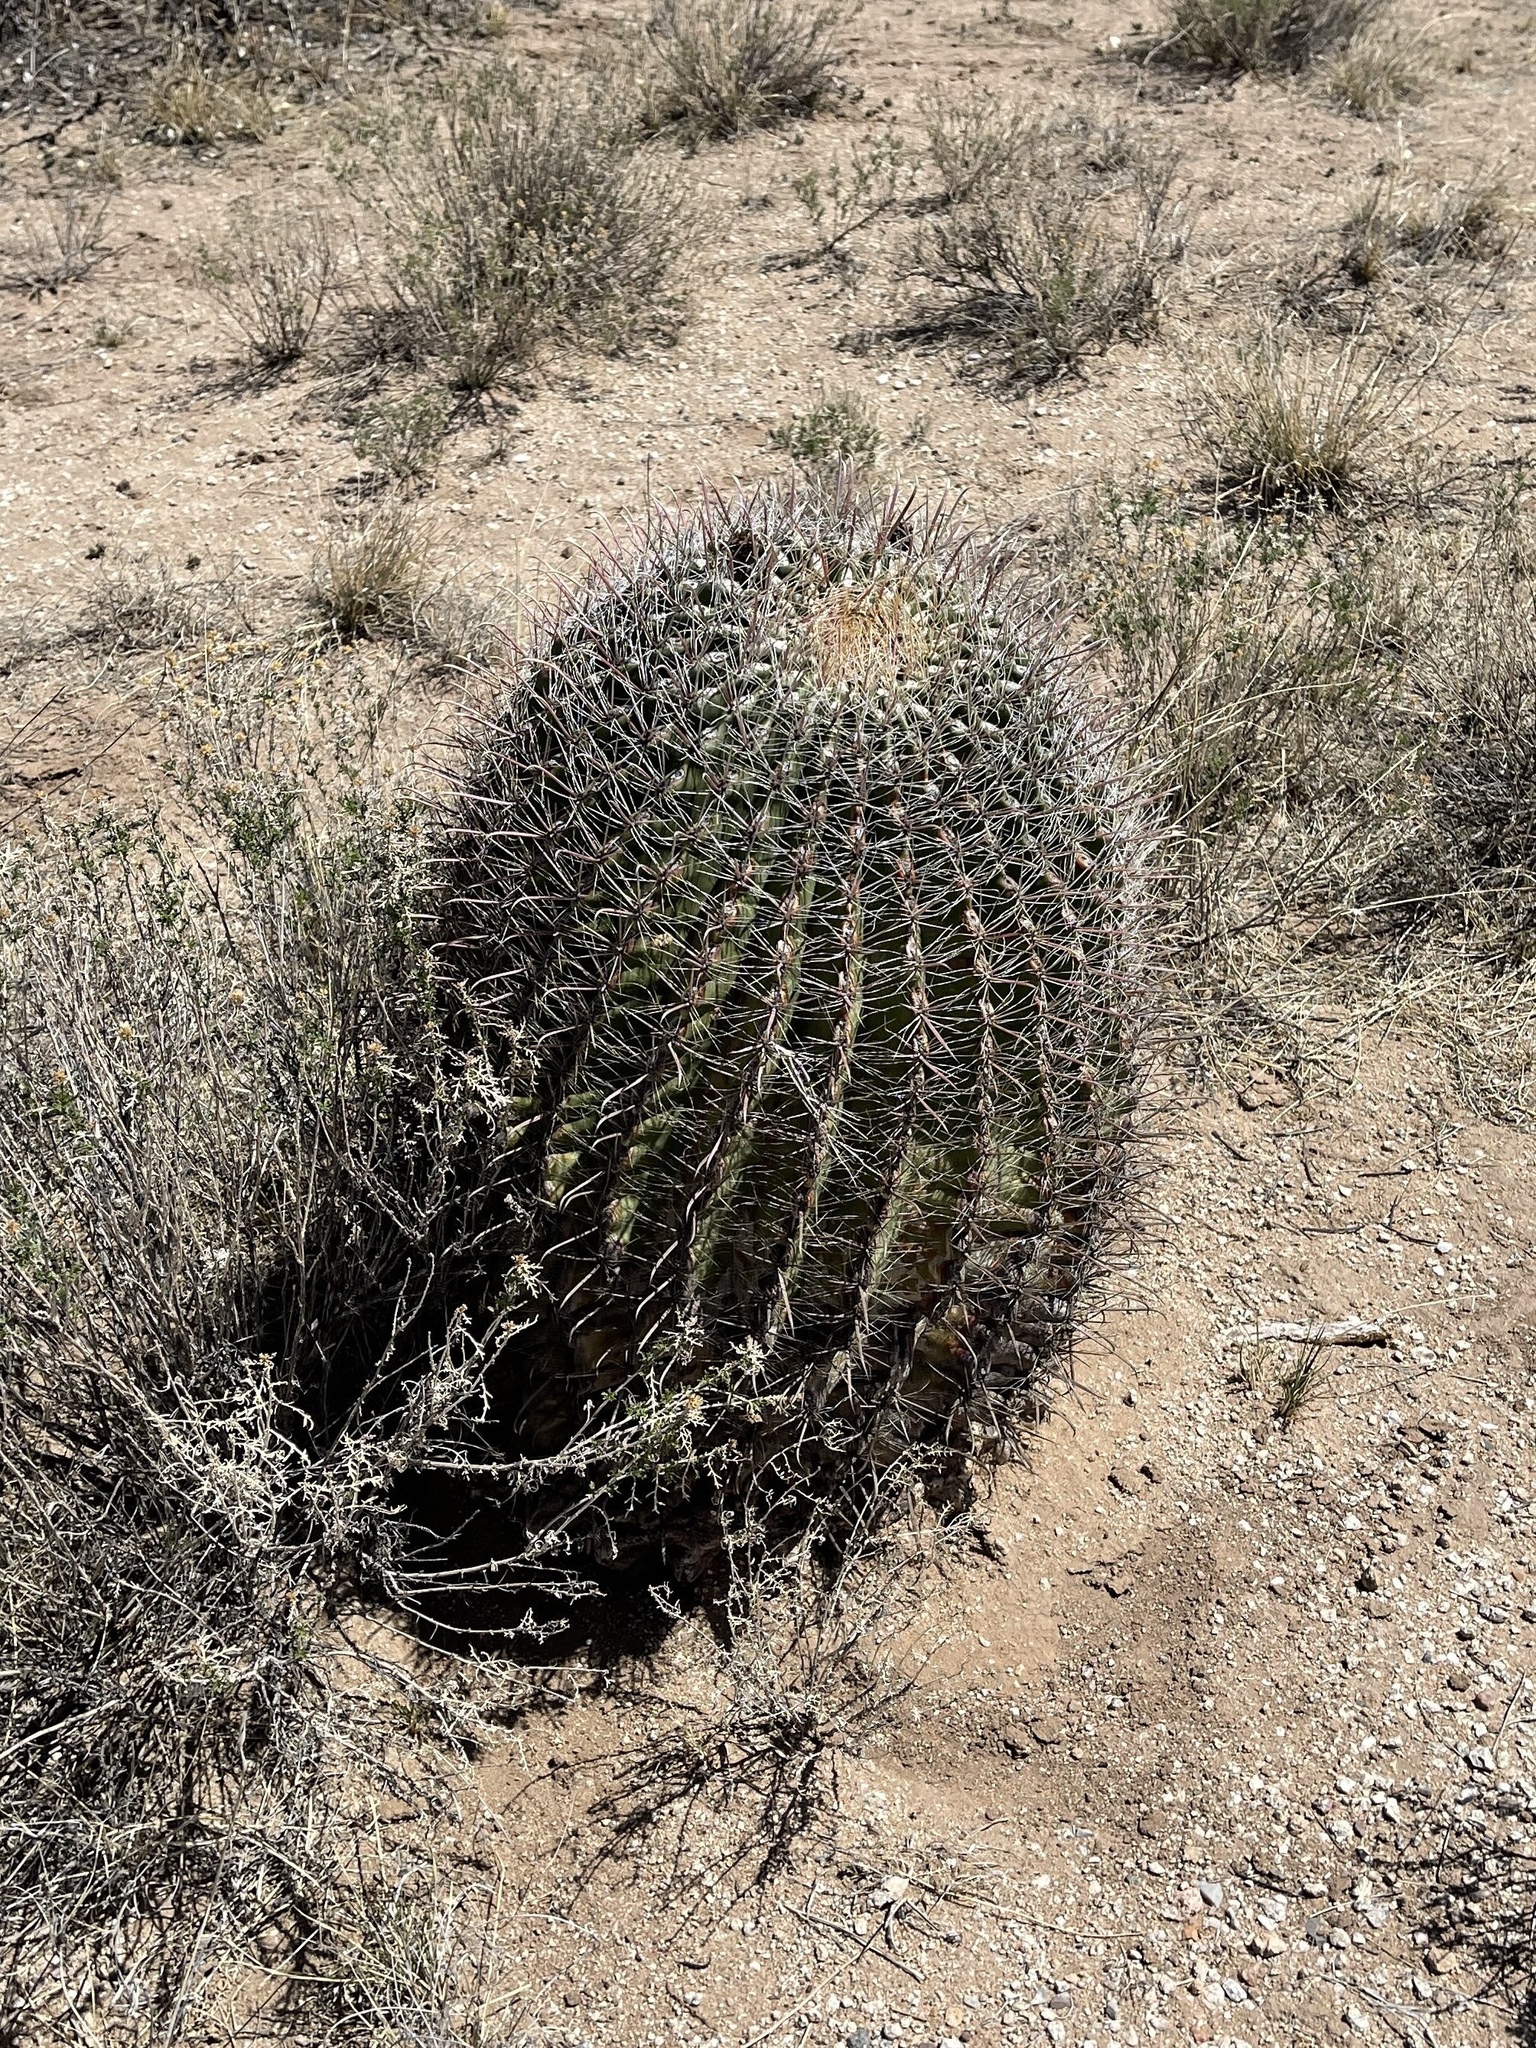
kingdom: Plantae
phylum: Tracheophyta
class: Magnoliopsida
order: Caryophyllales
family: Cactaceae
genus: Ferocactus
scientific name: Ferocactus wislizeni
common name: Candy barrel cactus
